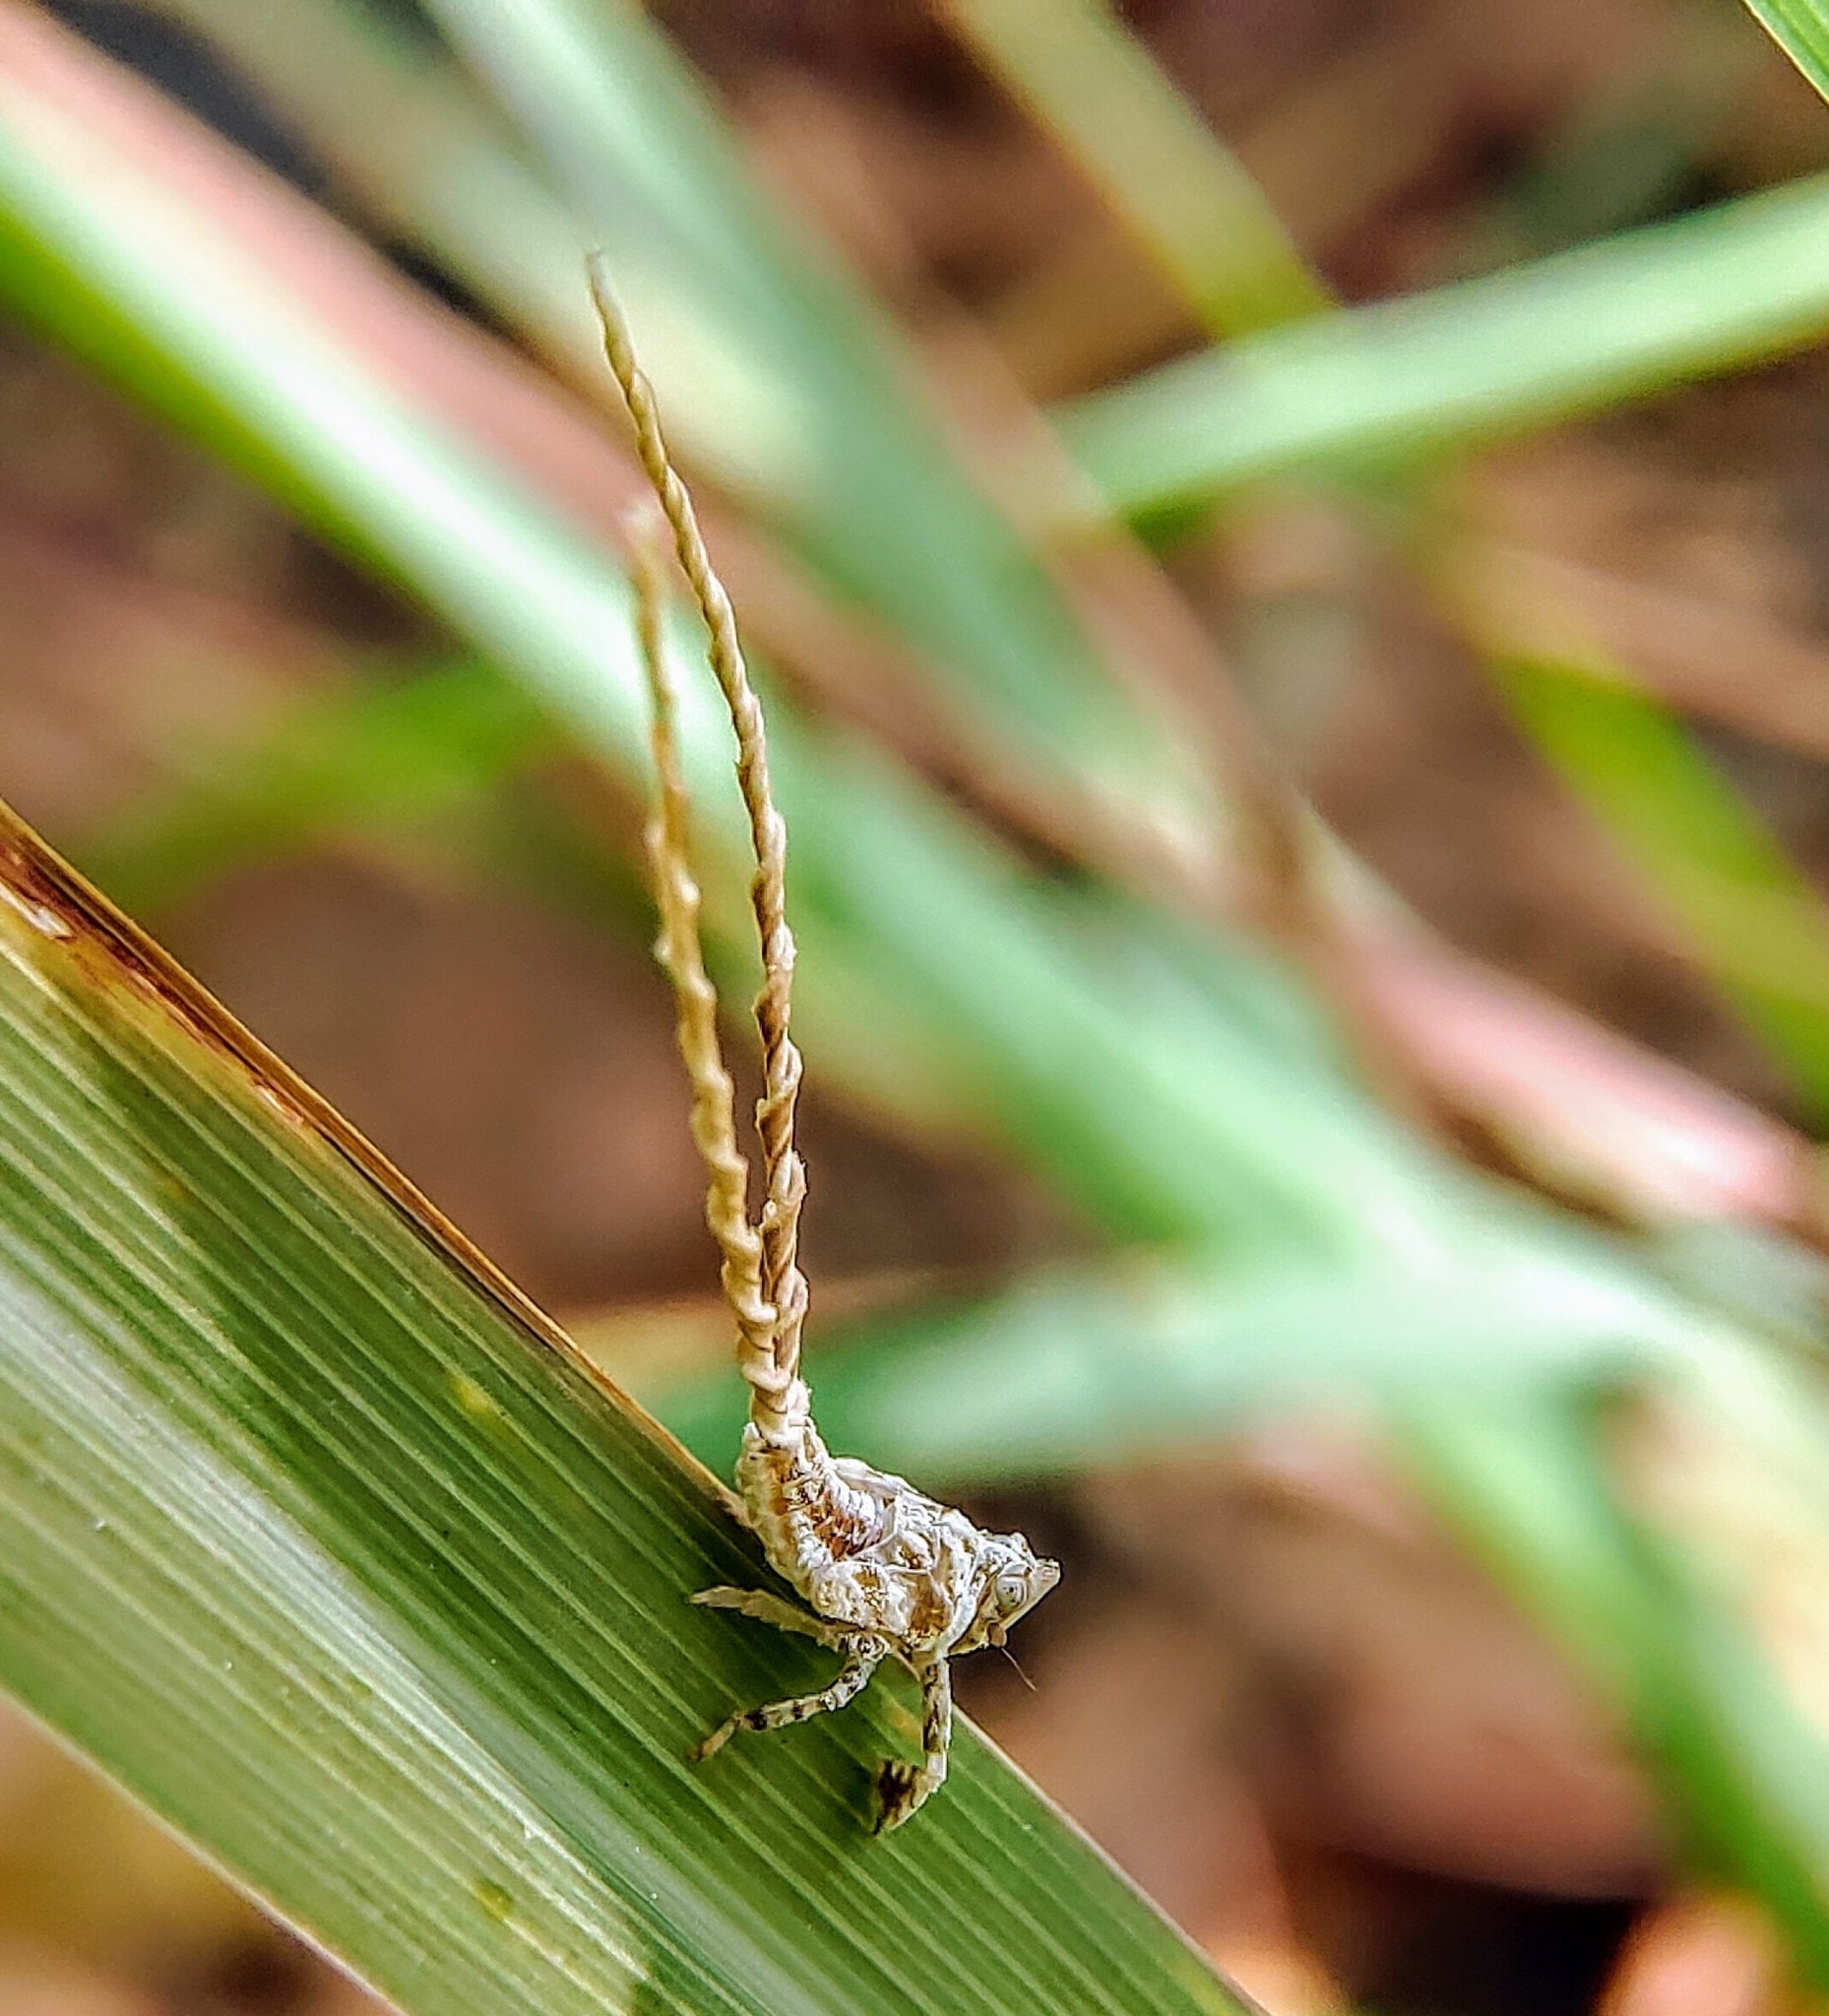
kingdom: Animalia
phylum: Arthropoda
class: Insecta
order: Hemiptera
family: Lophopidae
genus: Elasmoscelis
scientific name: Elasmoscelis perforata
